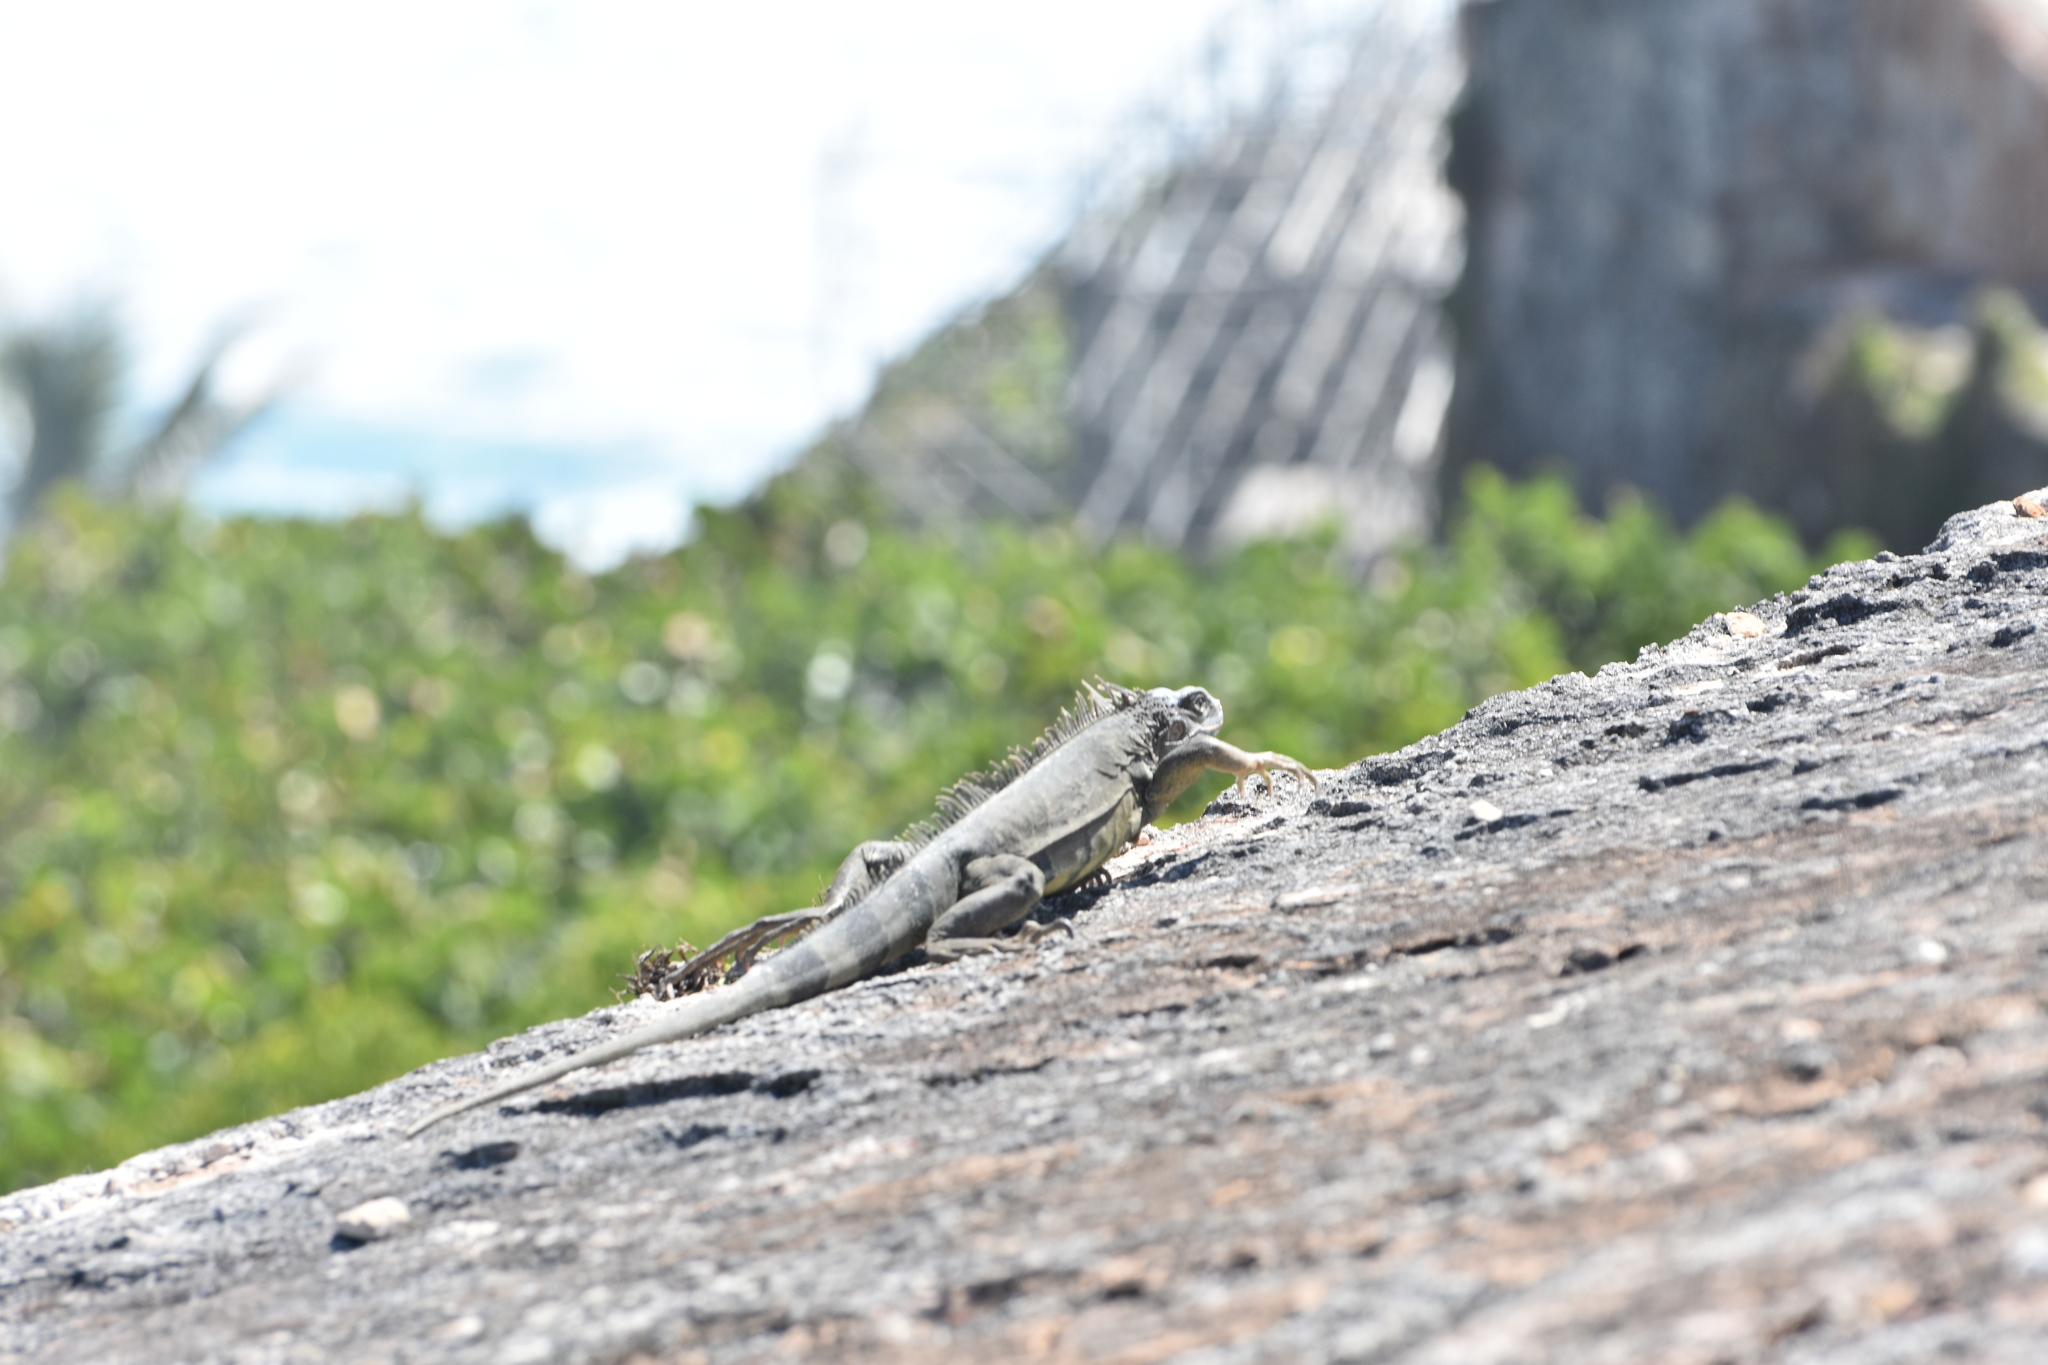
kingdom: Animalia
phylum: Chordata
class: Squamata
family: Iguanidae
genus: Iguana
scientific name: Iguana iguana
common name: Green iguana
